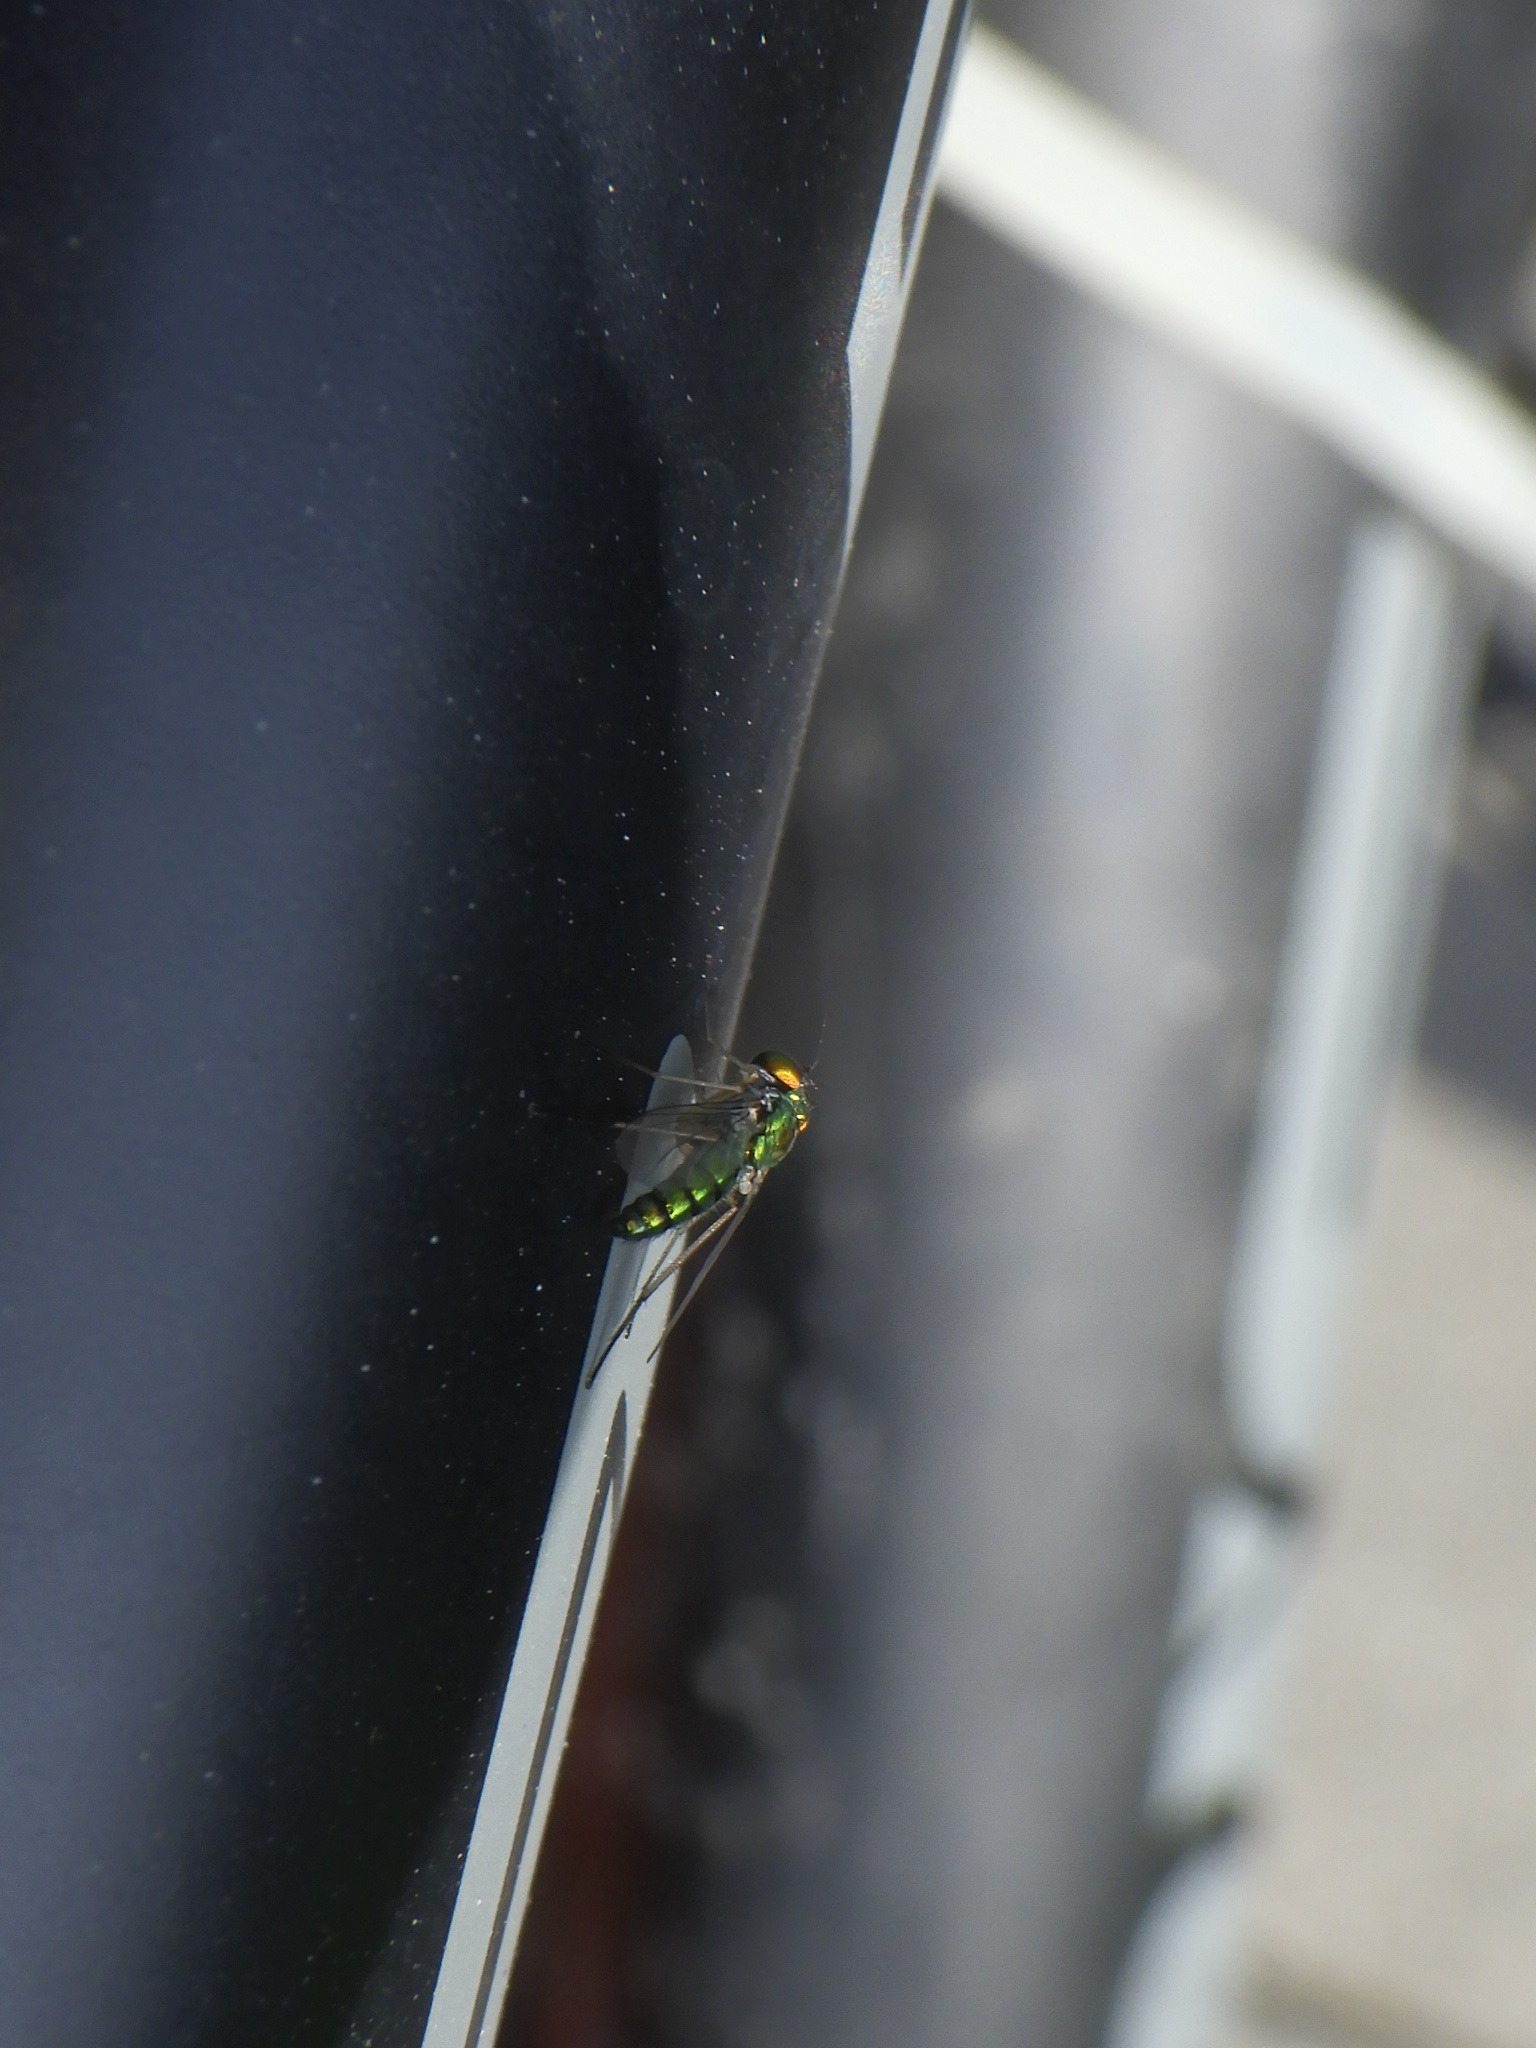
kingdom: Animalia
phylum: Arthropoda
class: Insecta
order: Diptera
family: Dolichopodidae
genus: Condylostylus
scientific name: Condylostylus
